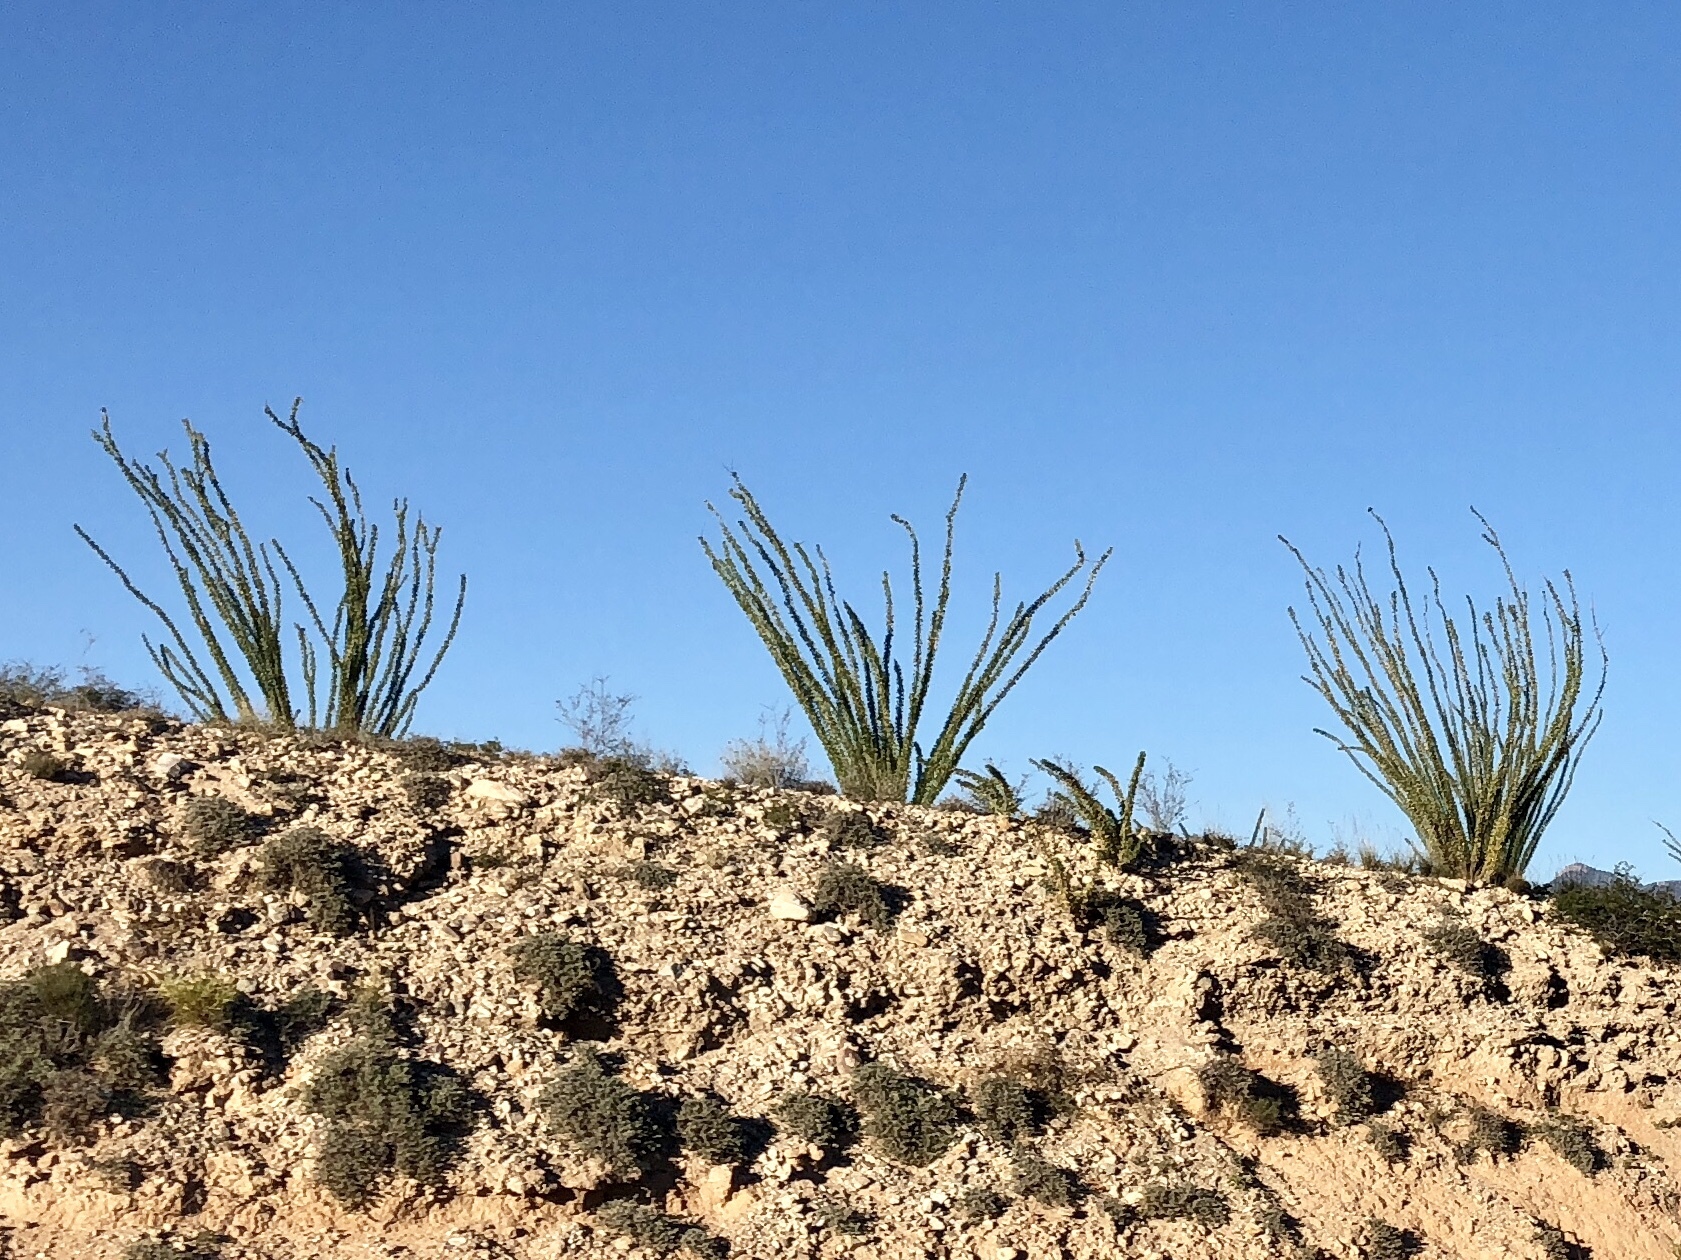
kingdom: Plantae
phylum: Tracheophyta
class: Magnoliopsida
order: Ericales
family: Fouquieriaceae
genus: Fouquieria
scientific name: Fouquieria splendens
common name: Vine-cactus
